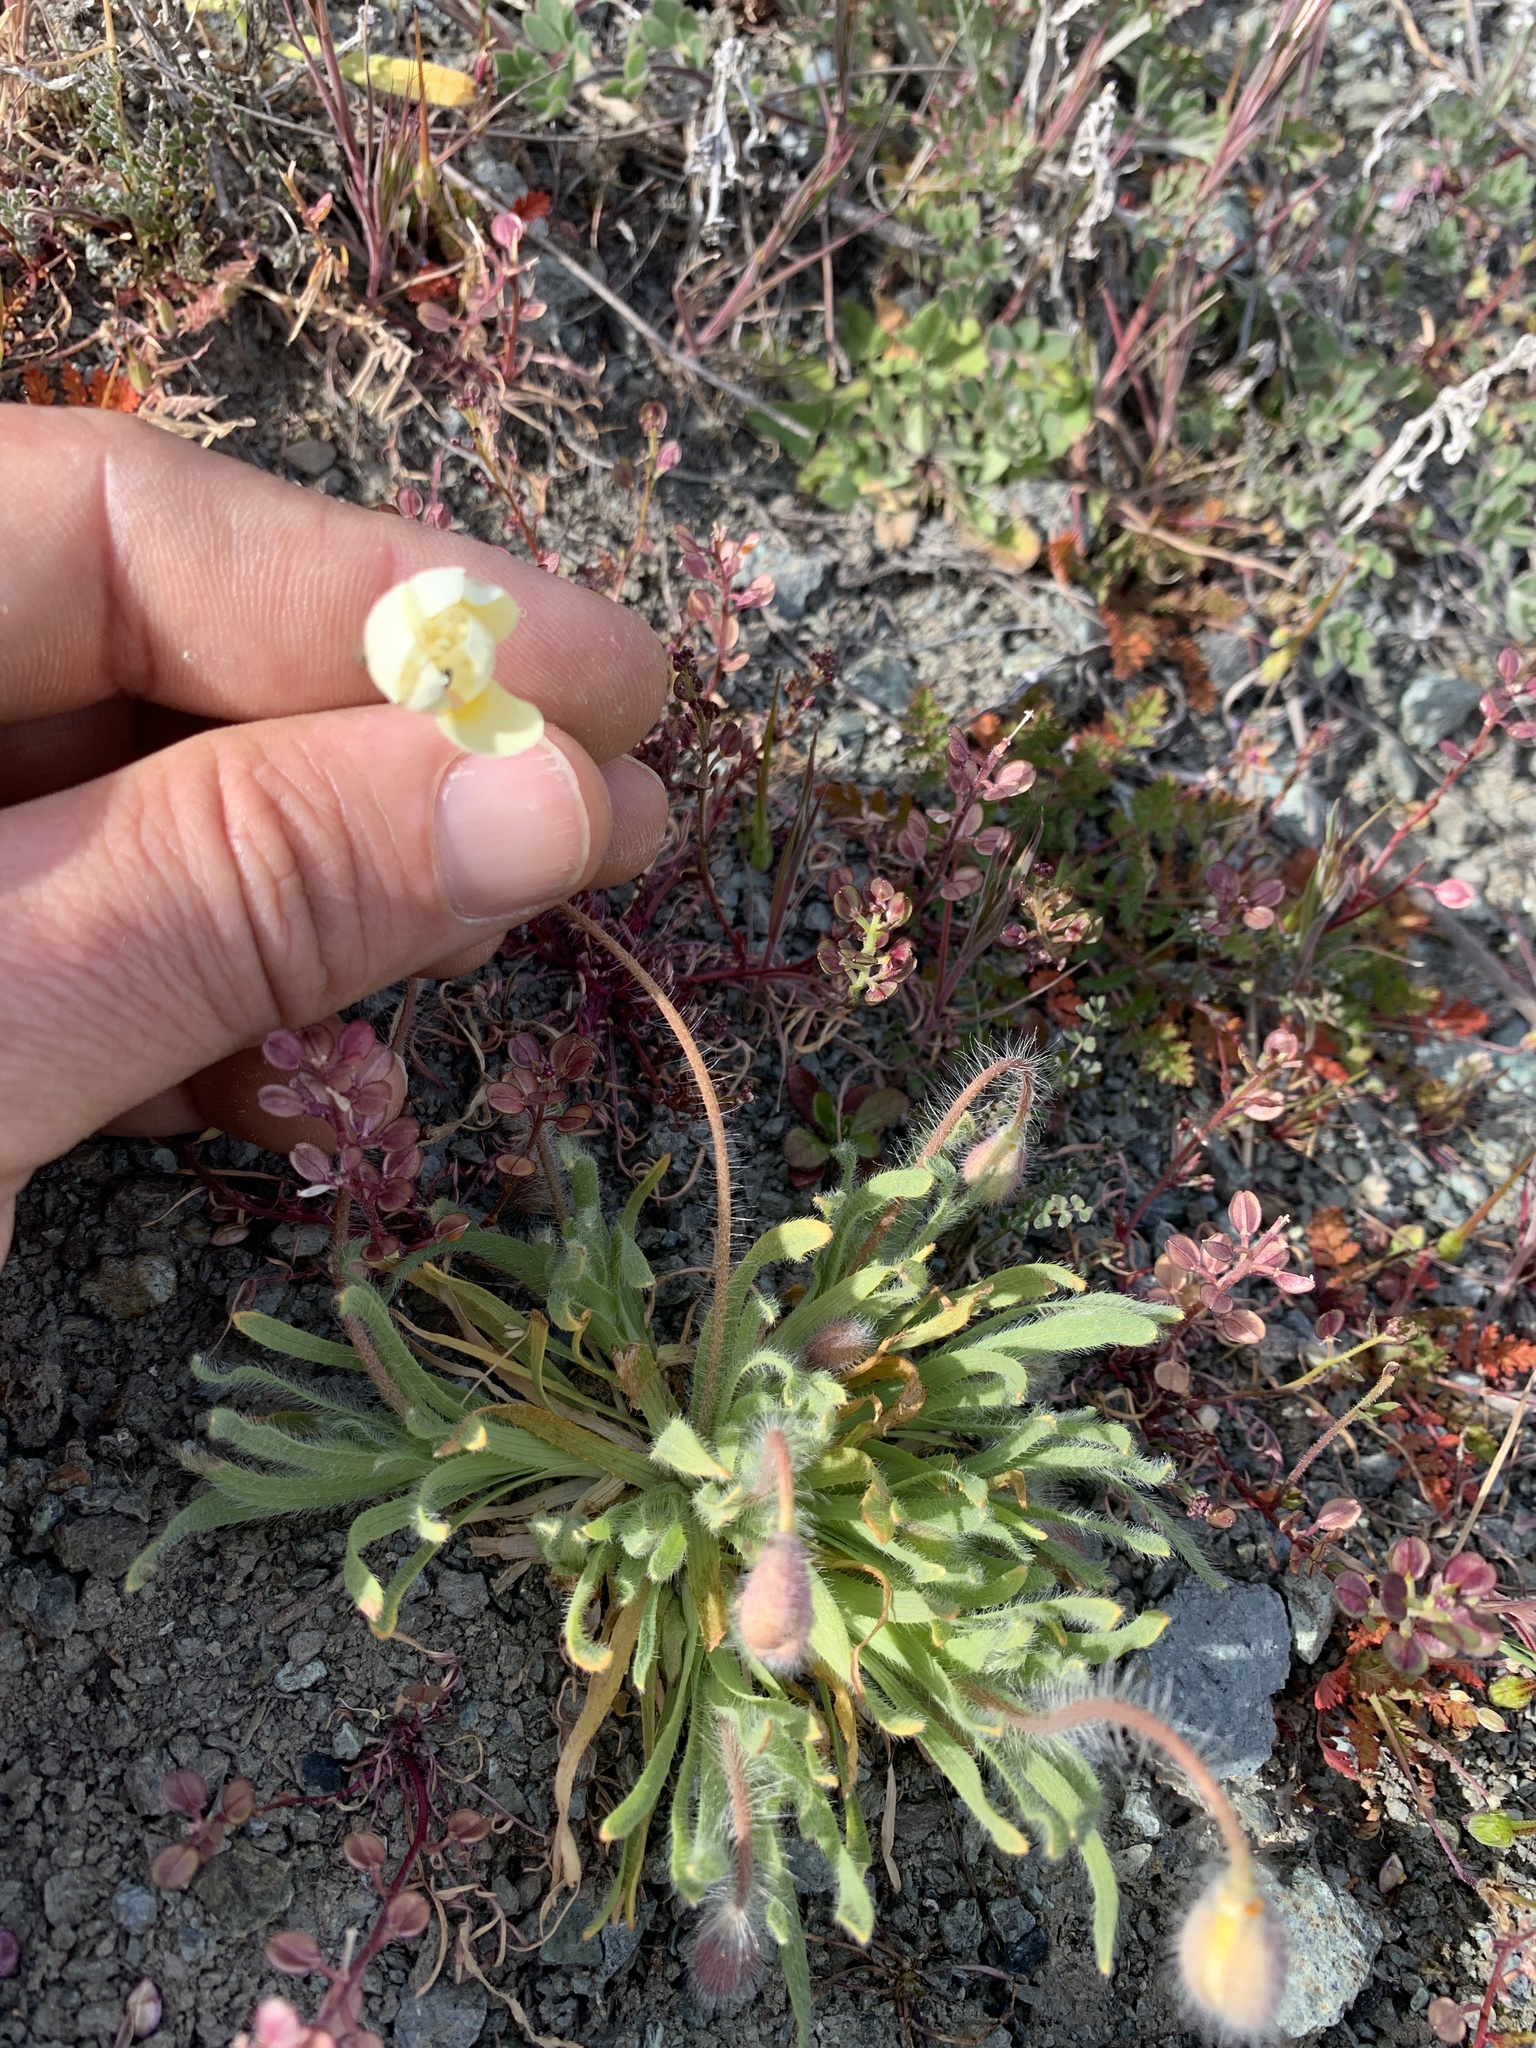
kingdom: Plantae
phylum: Tracheophyta
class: Magnoliopsida
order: Ranunculales
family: Papaveraceae
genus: Platystemon
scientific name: Platystemon californicus
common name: Cream-cups
